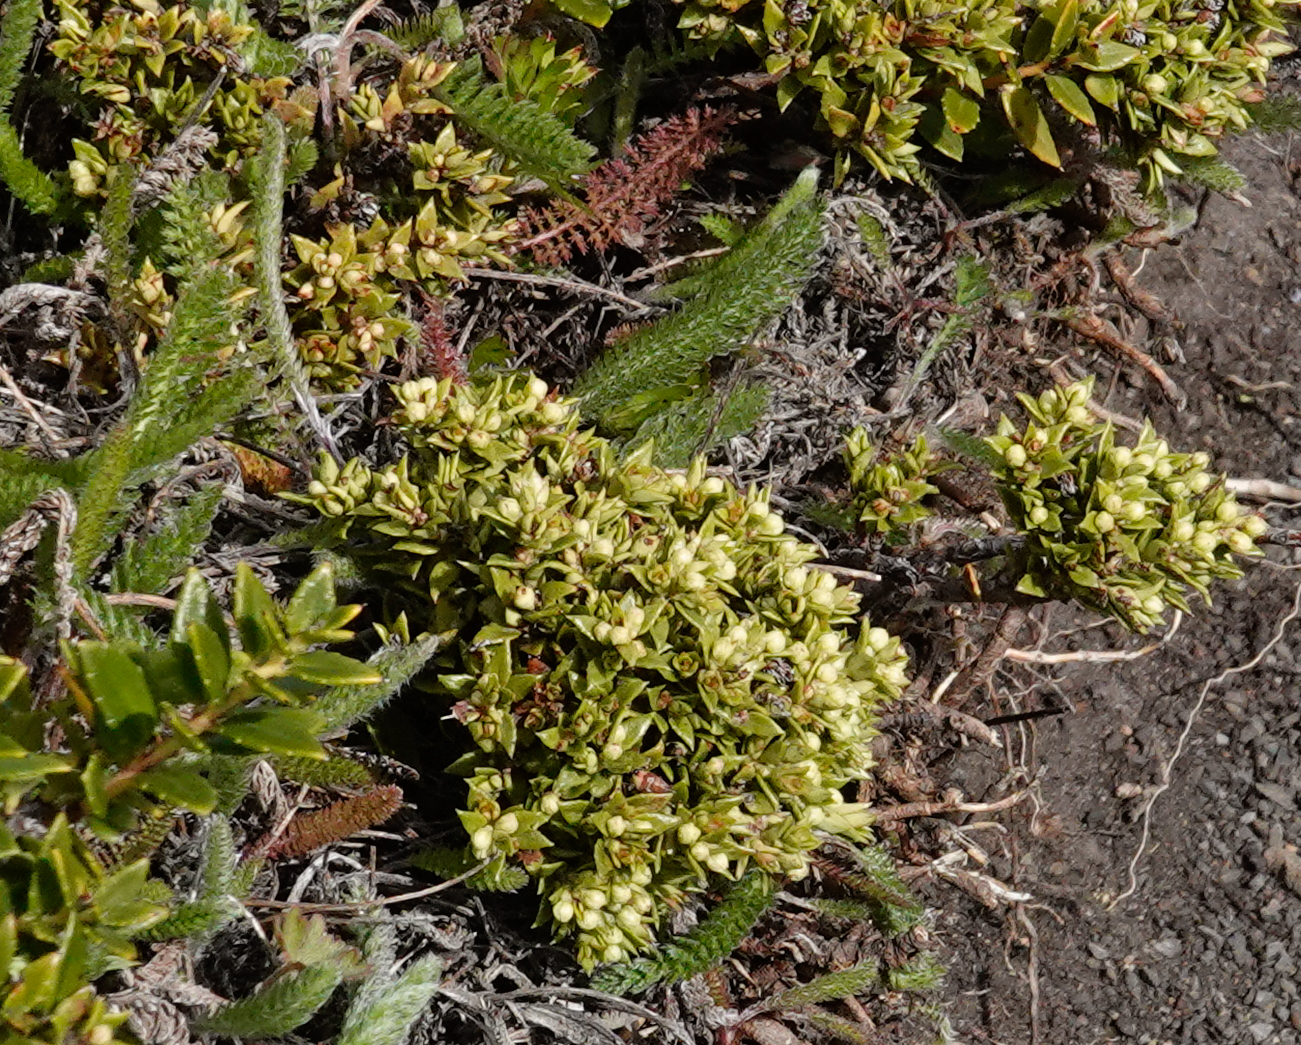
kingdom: Plantae
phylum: Tracheophyta
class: Magnoliopsida
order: Ericales
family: Ericaceae
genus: Gaultheria
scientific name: Gaultheria mucronata
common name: Prickly heath
